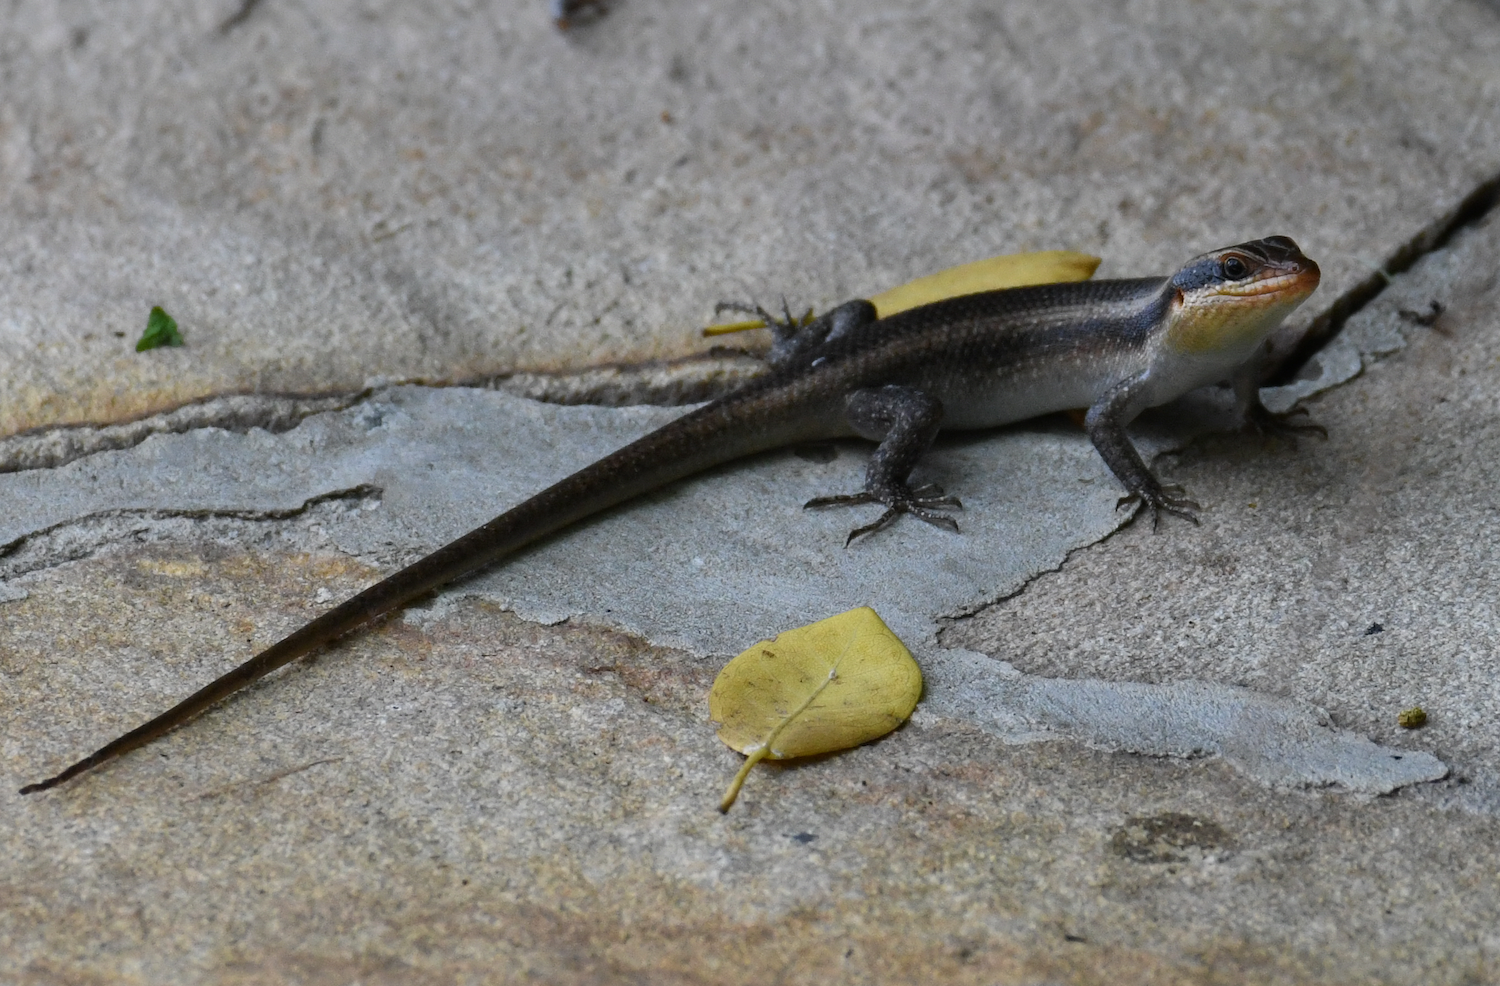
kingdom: Animalia
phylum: Chordata
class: Squamata
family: Scincidae
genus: Trachylepis
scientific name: Trachylepis wahlbergii
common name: Wahlberg’s striped skink
